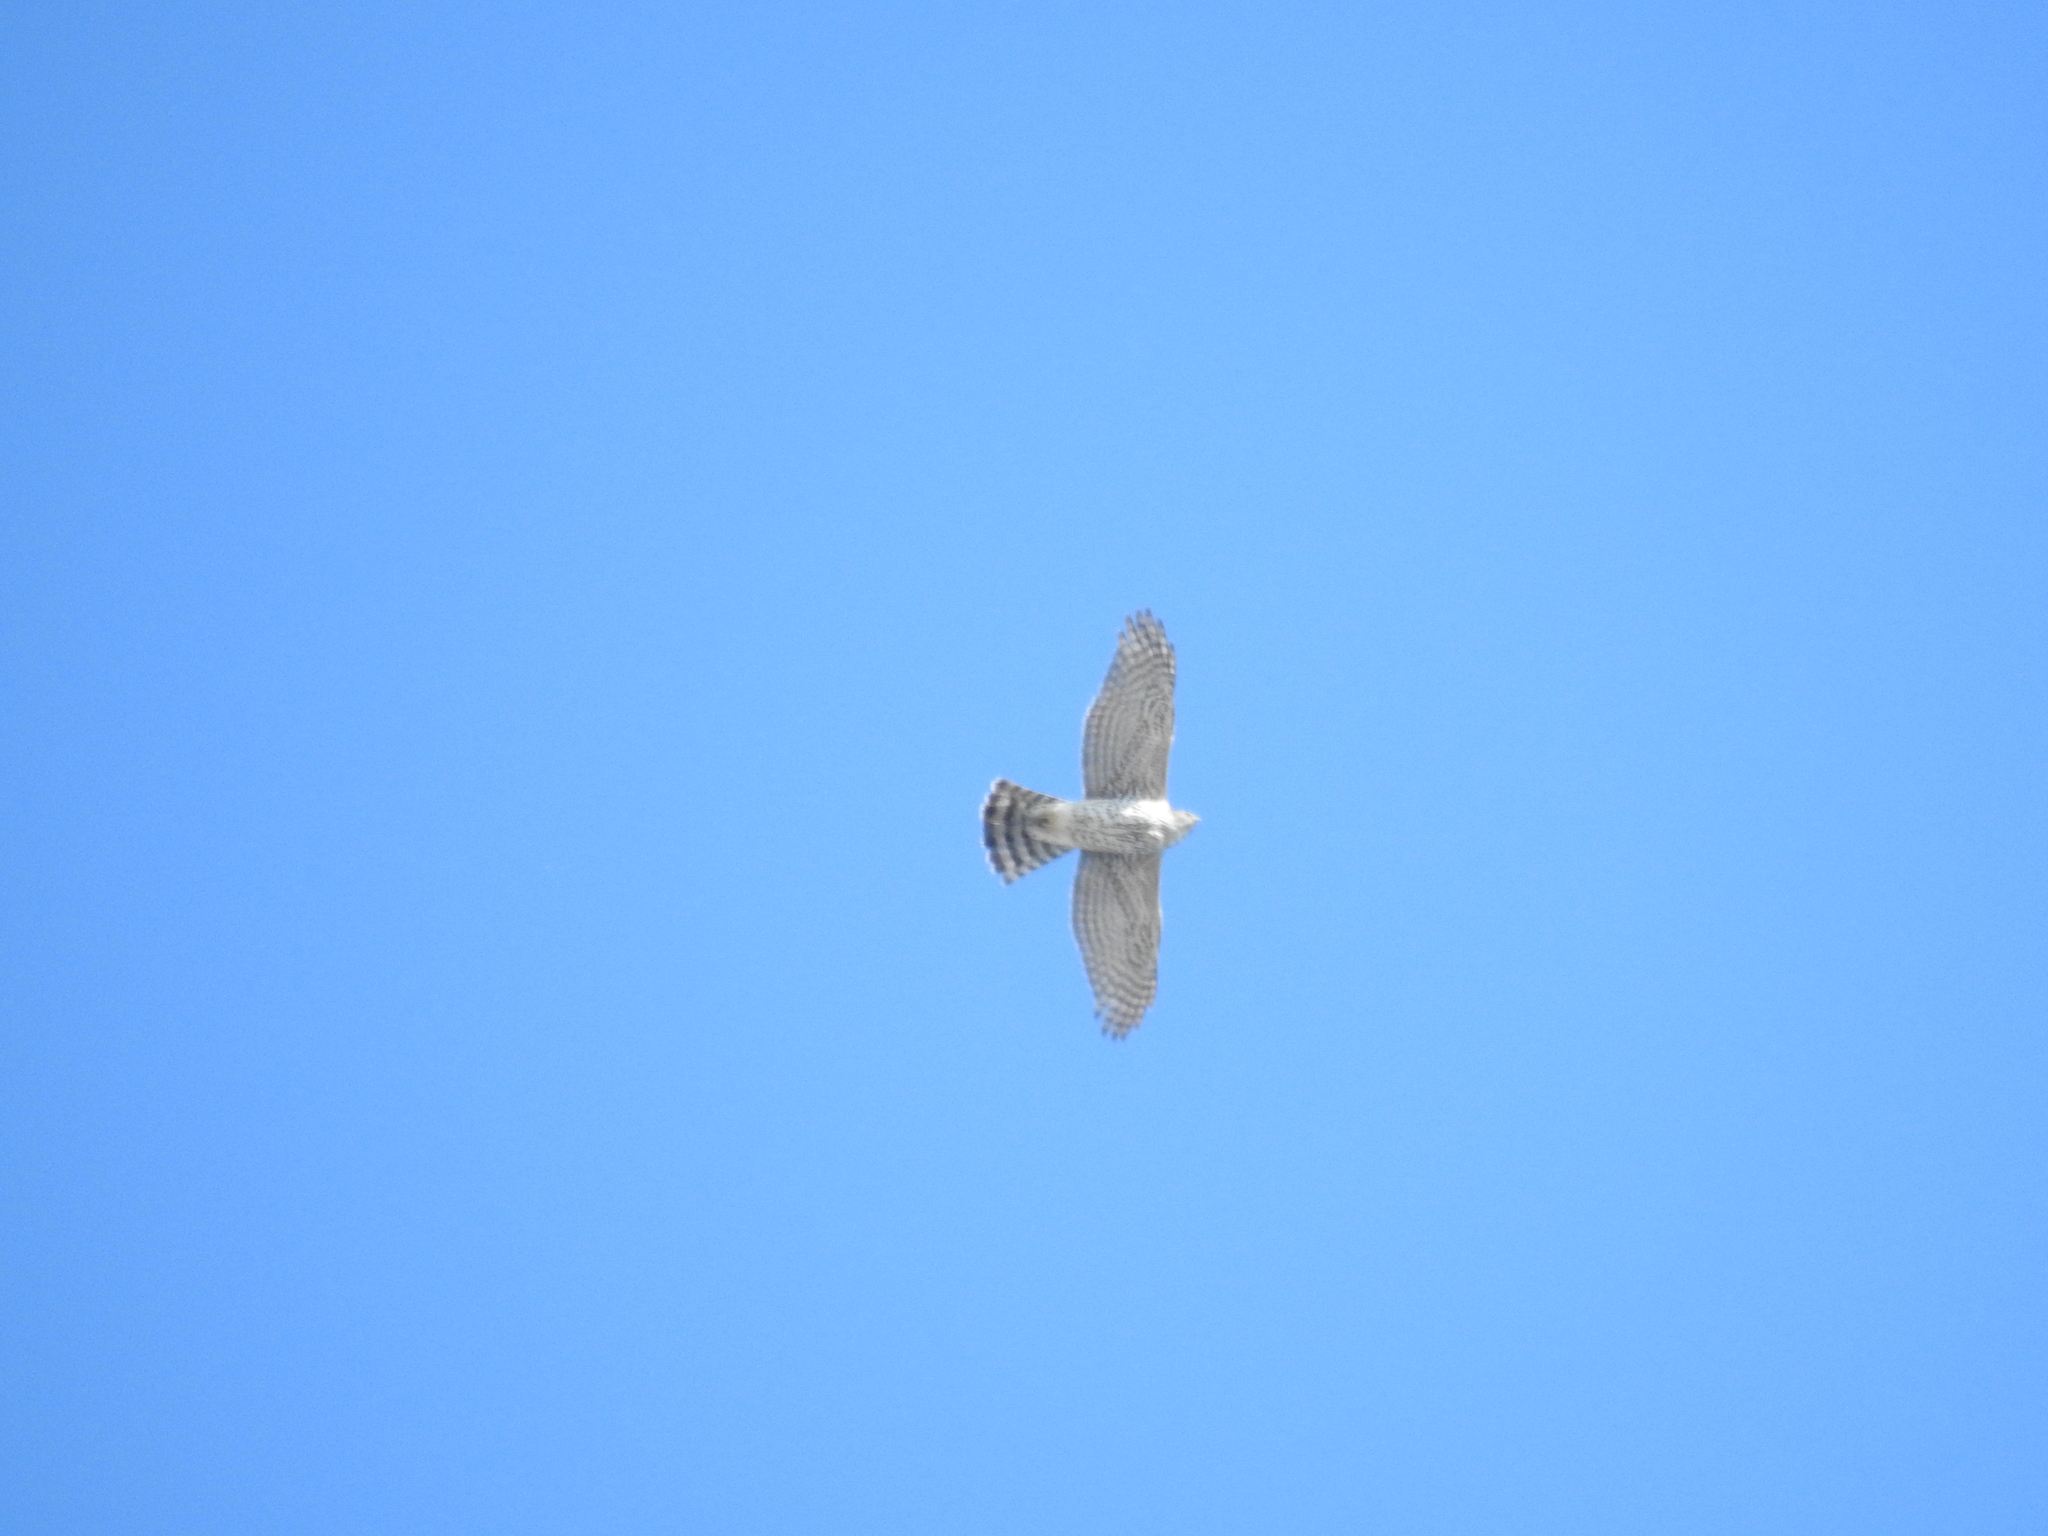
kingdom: Animalia
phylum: Chordata
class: Aves
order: Accipitriformes
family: Accipitridae
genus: Accipiter
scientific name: Accipiter gentilis
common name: Northern goshawk
